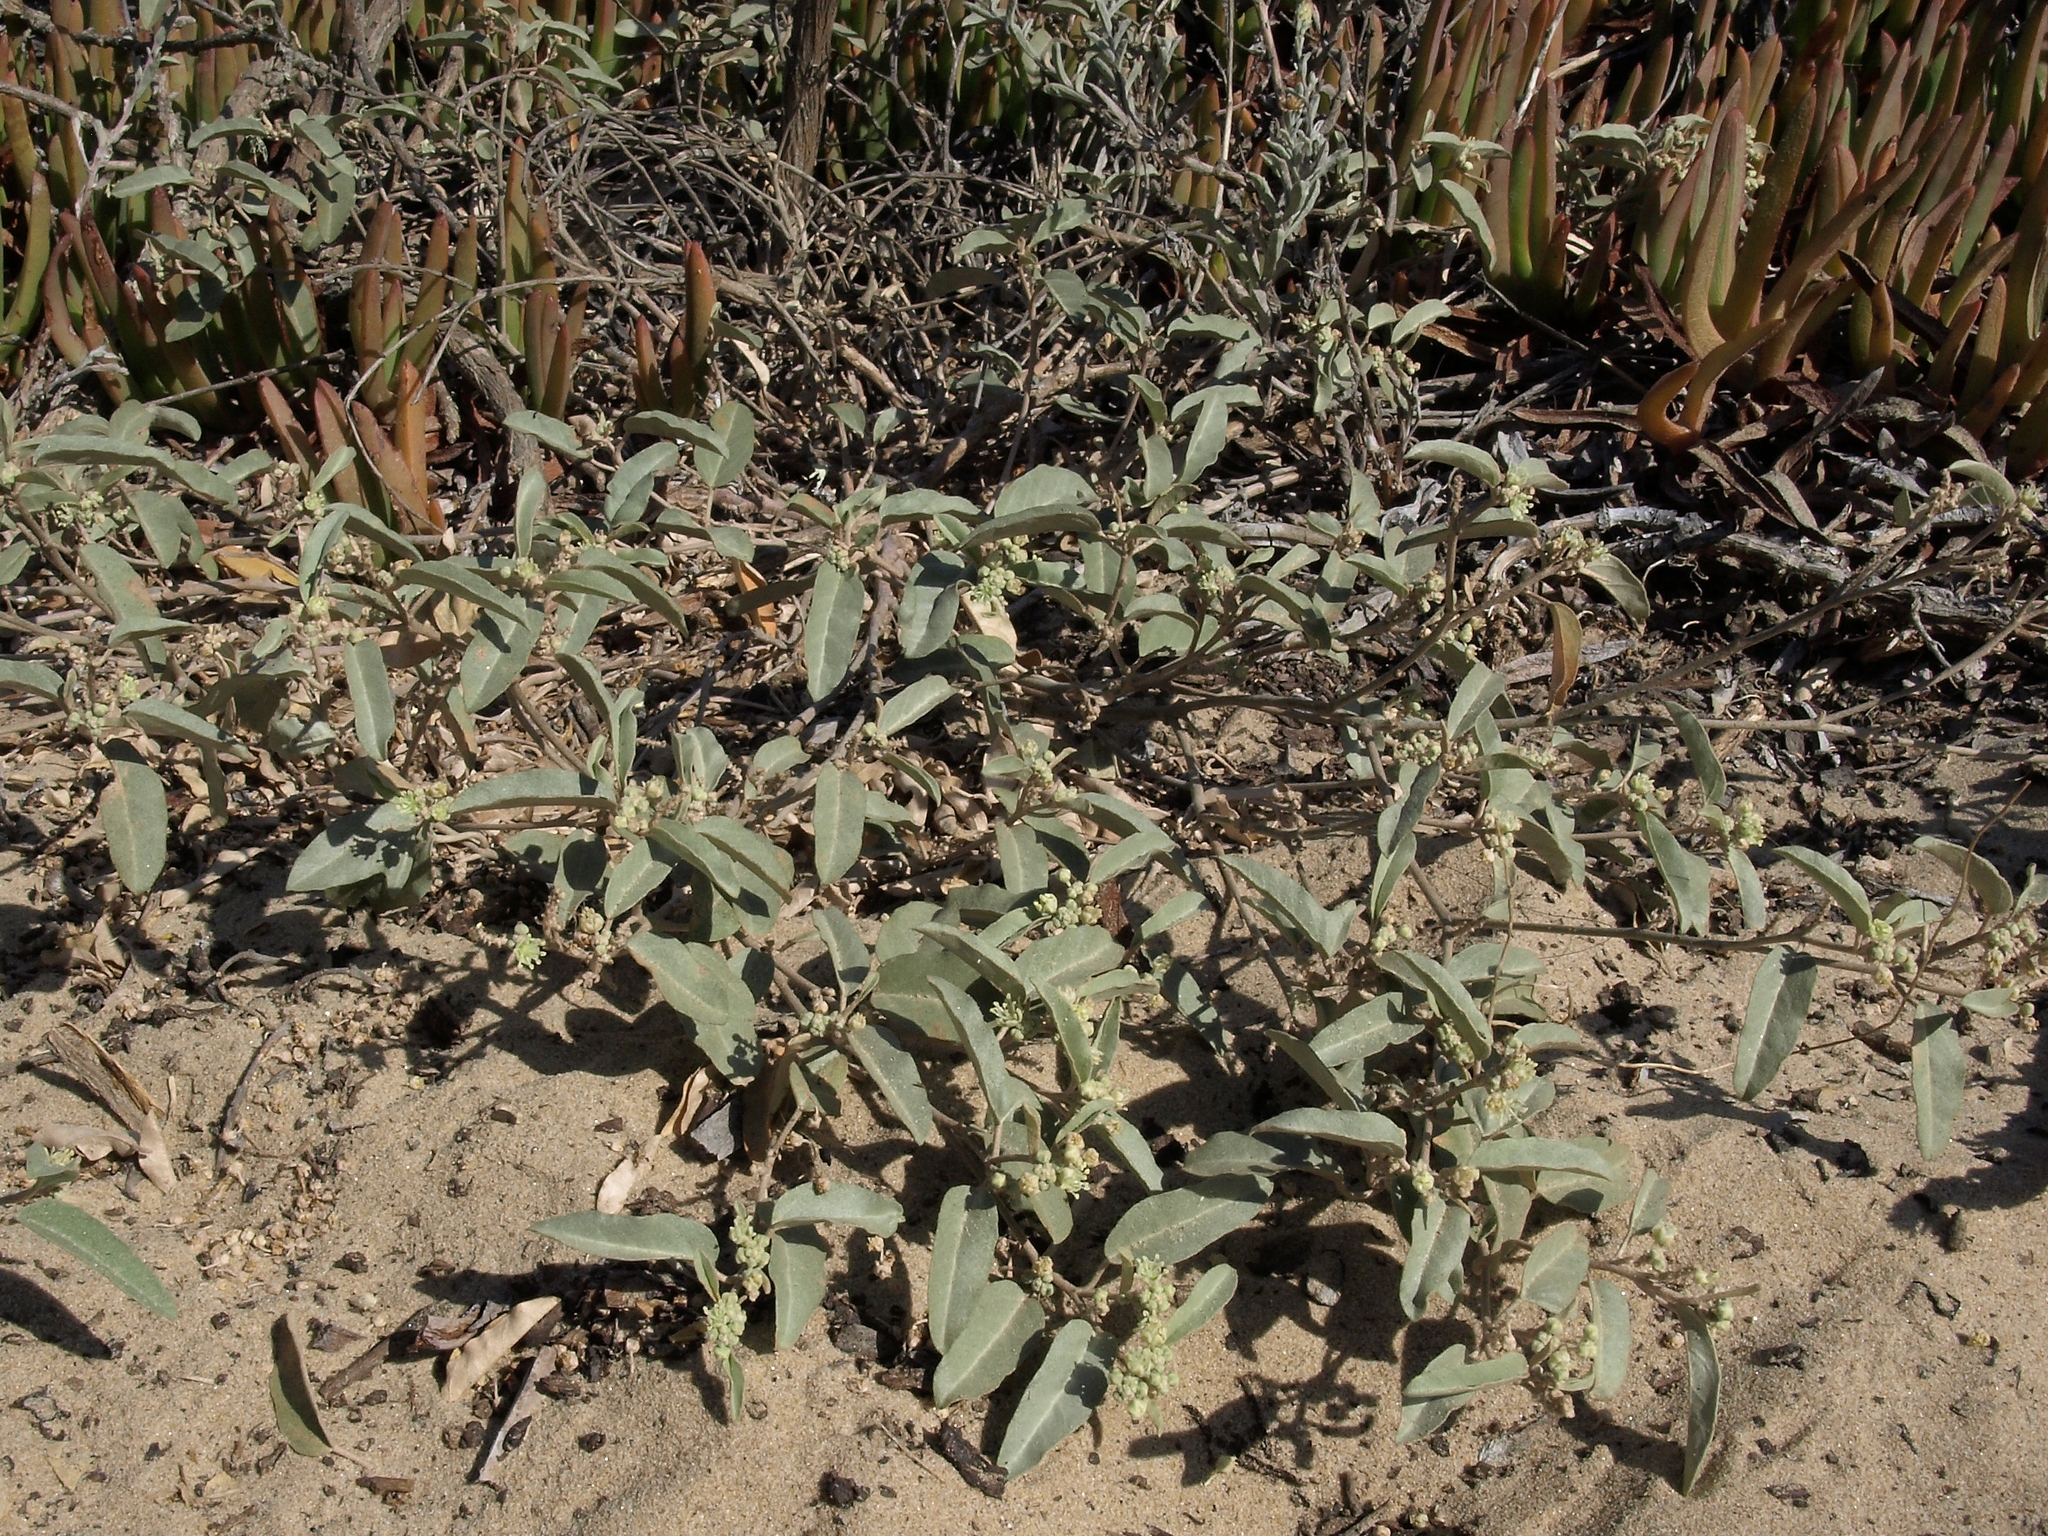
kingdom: Plantae
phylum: Tracheophyta
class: Magnoliopsida
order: Malpighiales
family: Euphorbiaceae
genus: Croton
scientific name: Croton californicus
